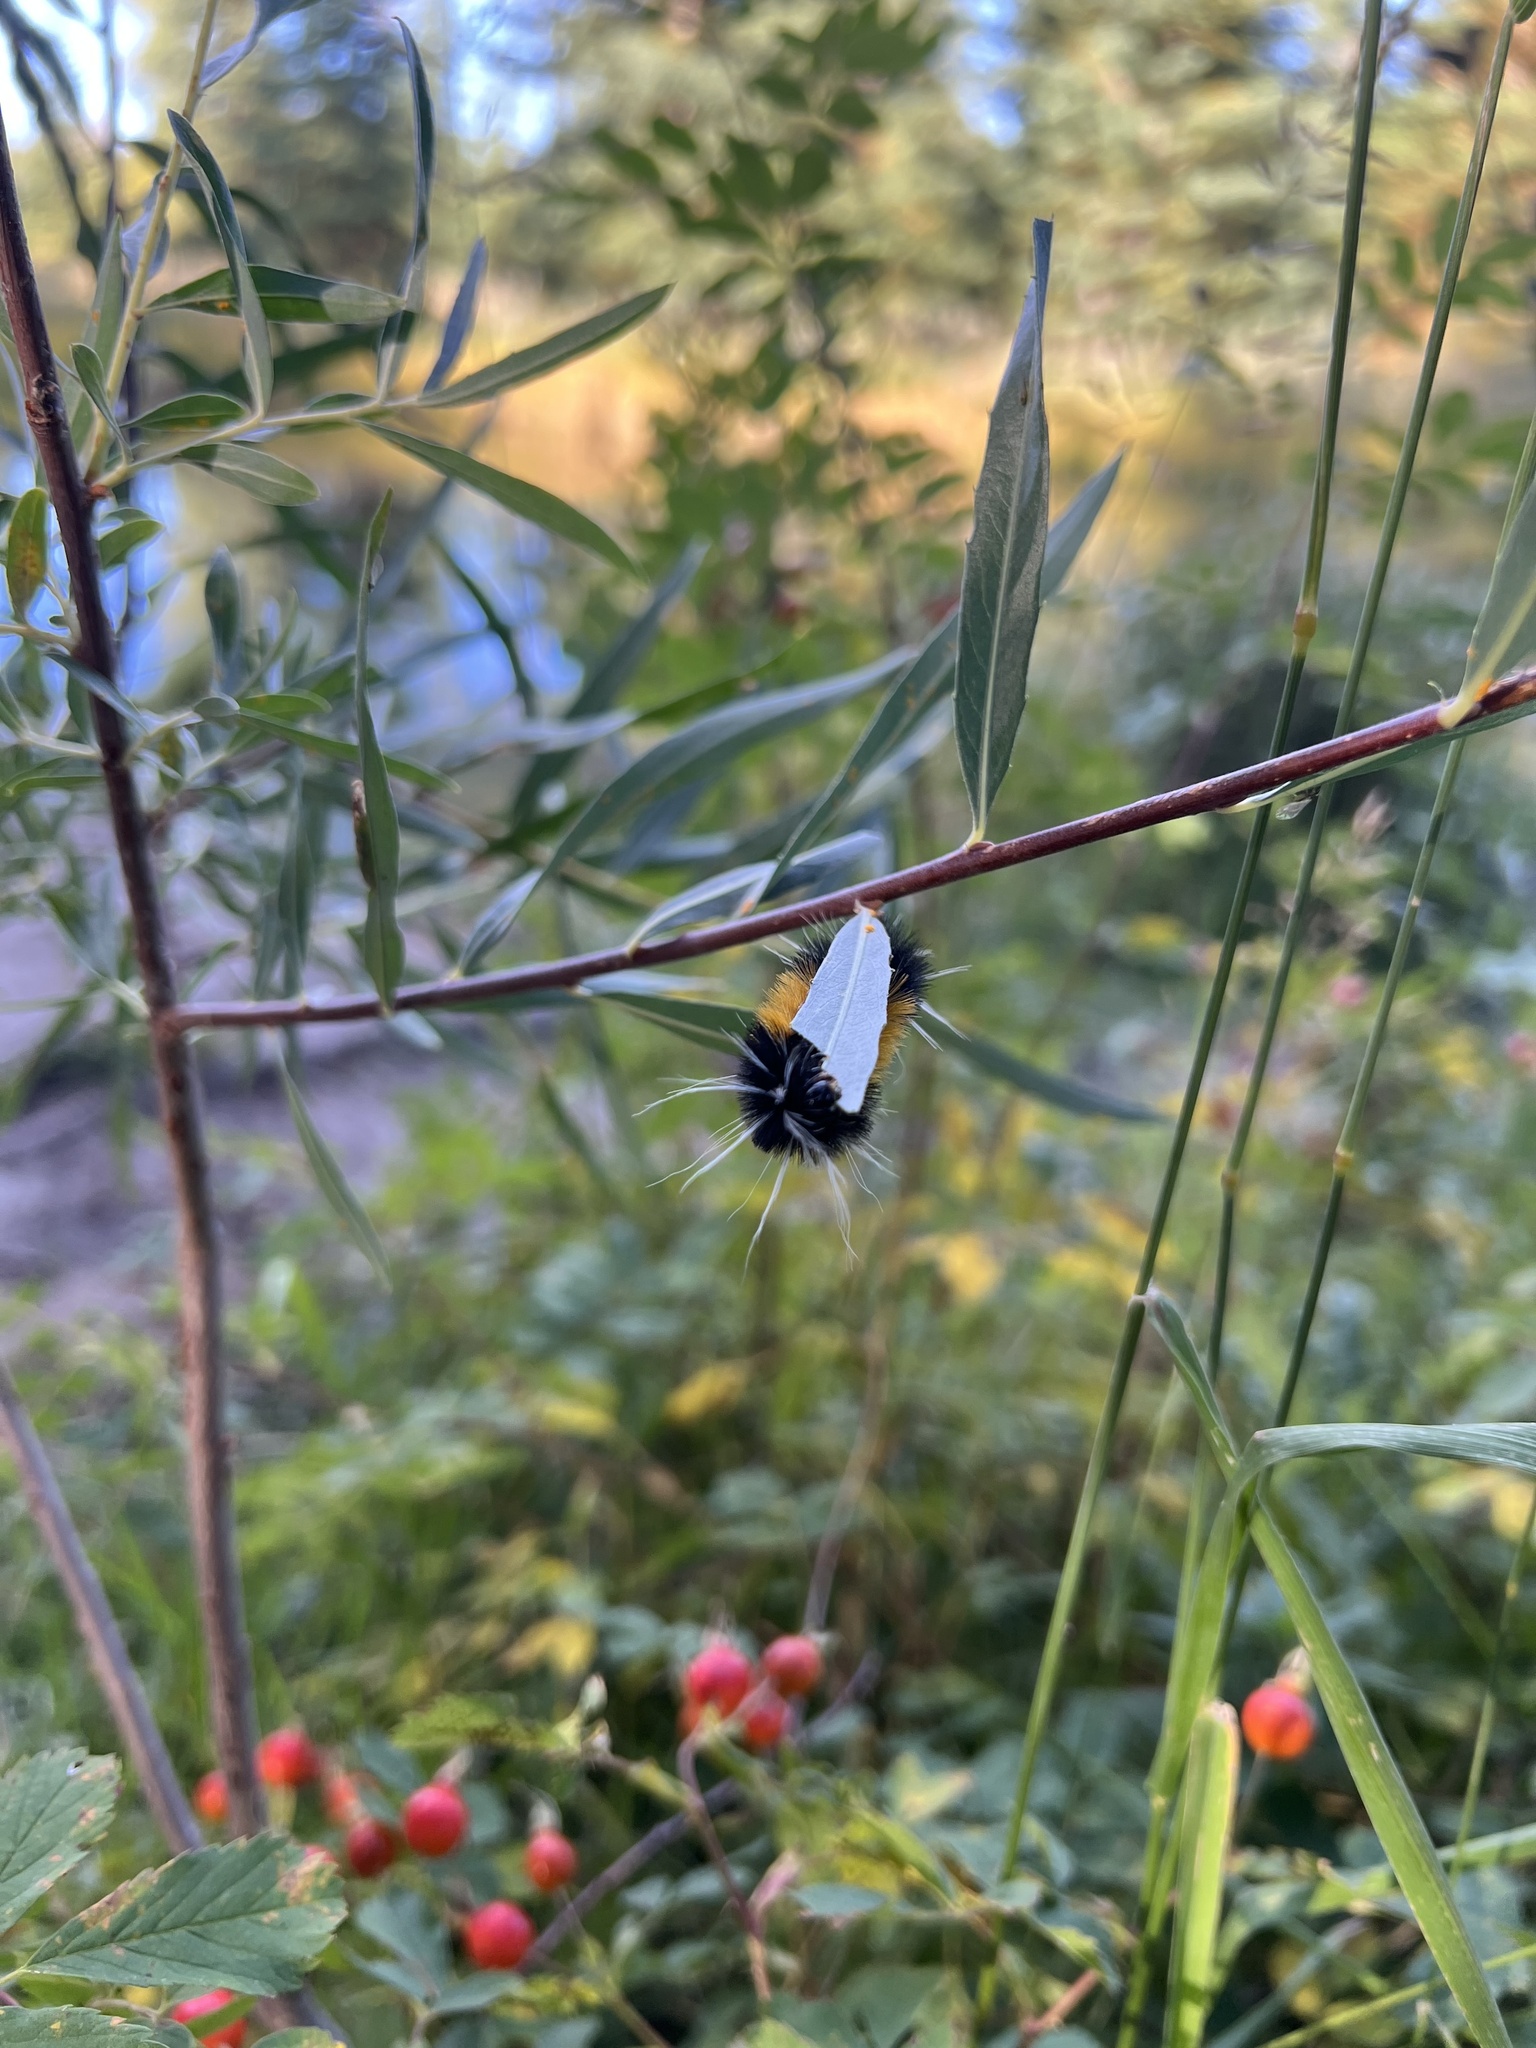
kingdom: Animalia
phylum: Arthropoda
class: Insecta
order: Lepidoptera
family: Erebidae
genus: Lophocampa
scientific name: Lophocampa maculata
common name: Spotted tussock moth
